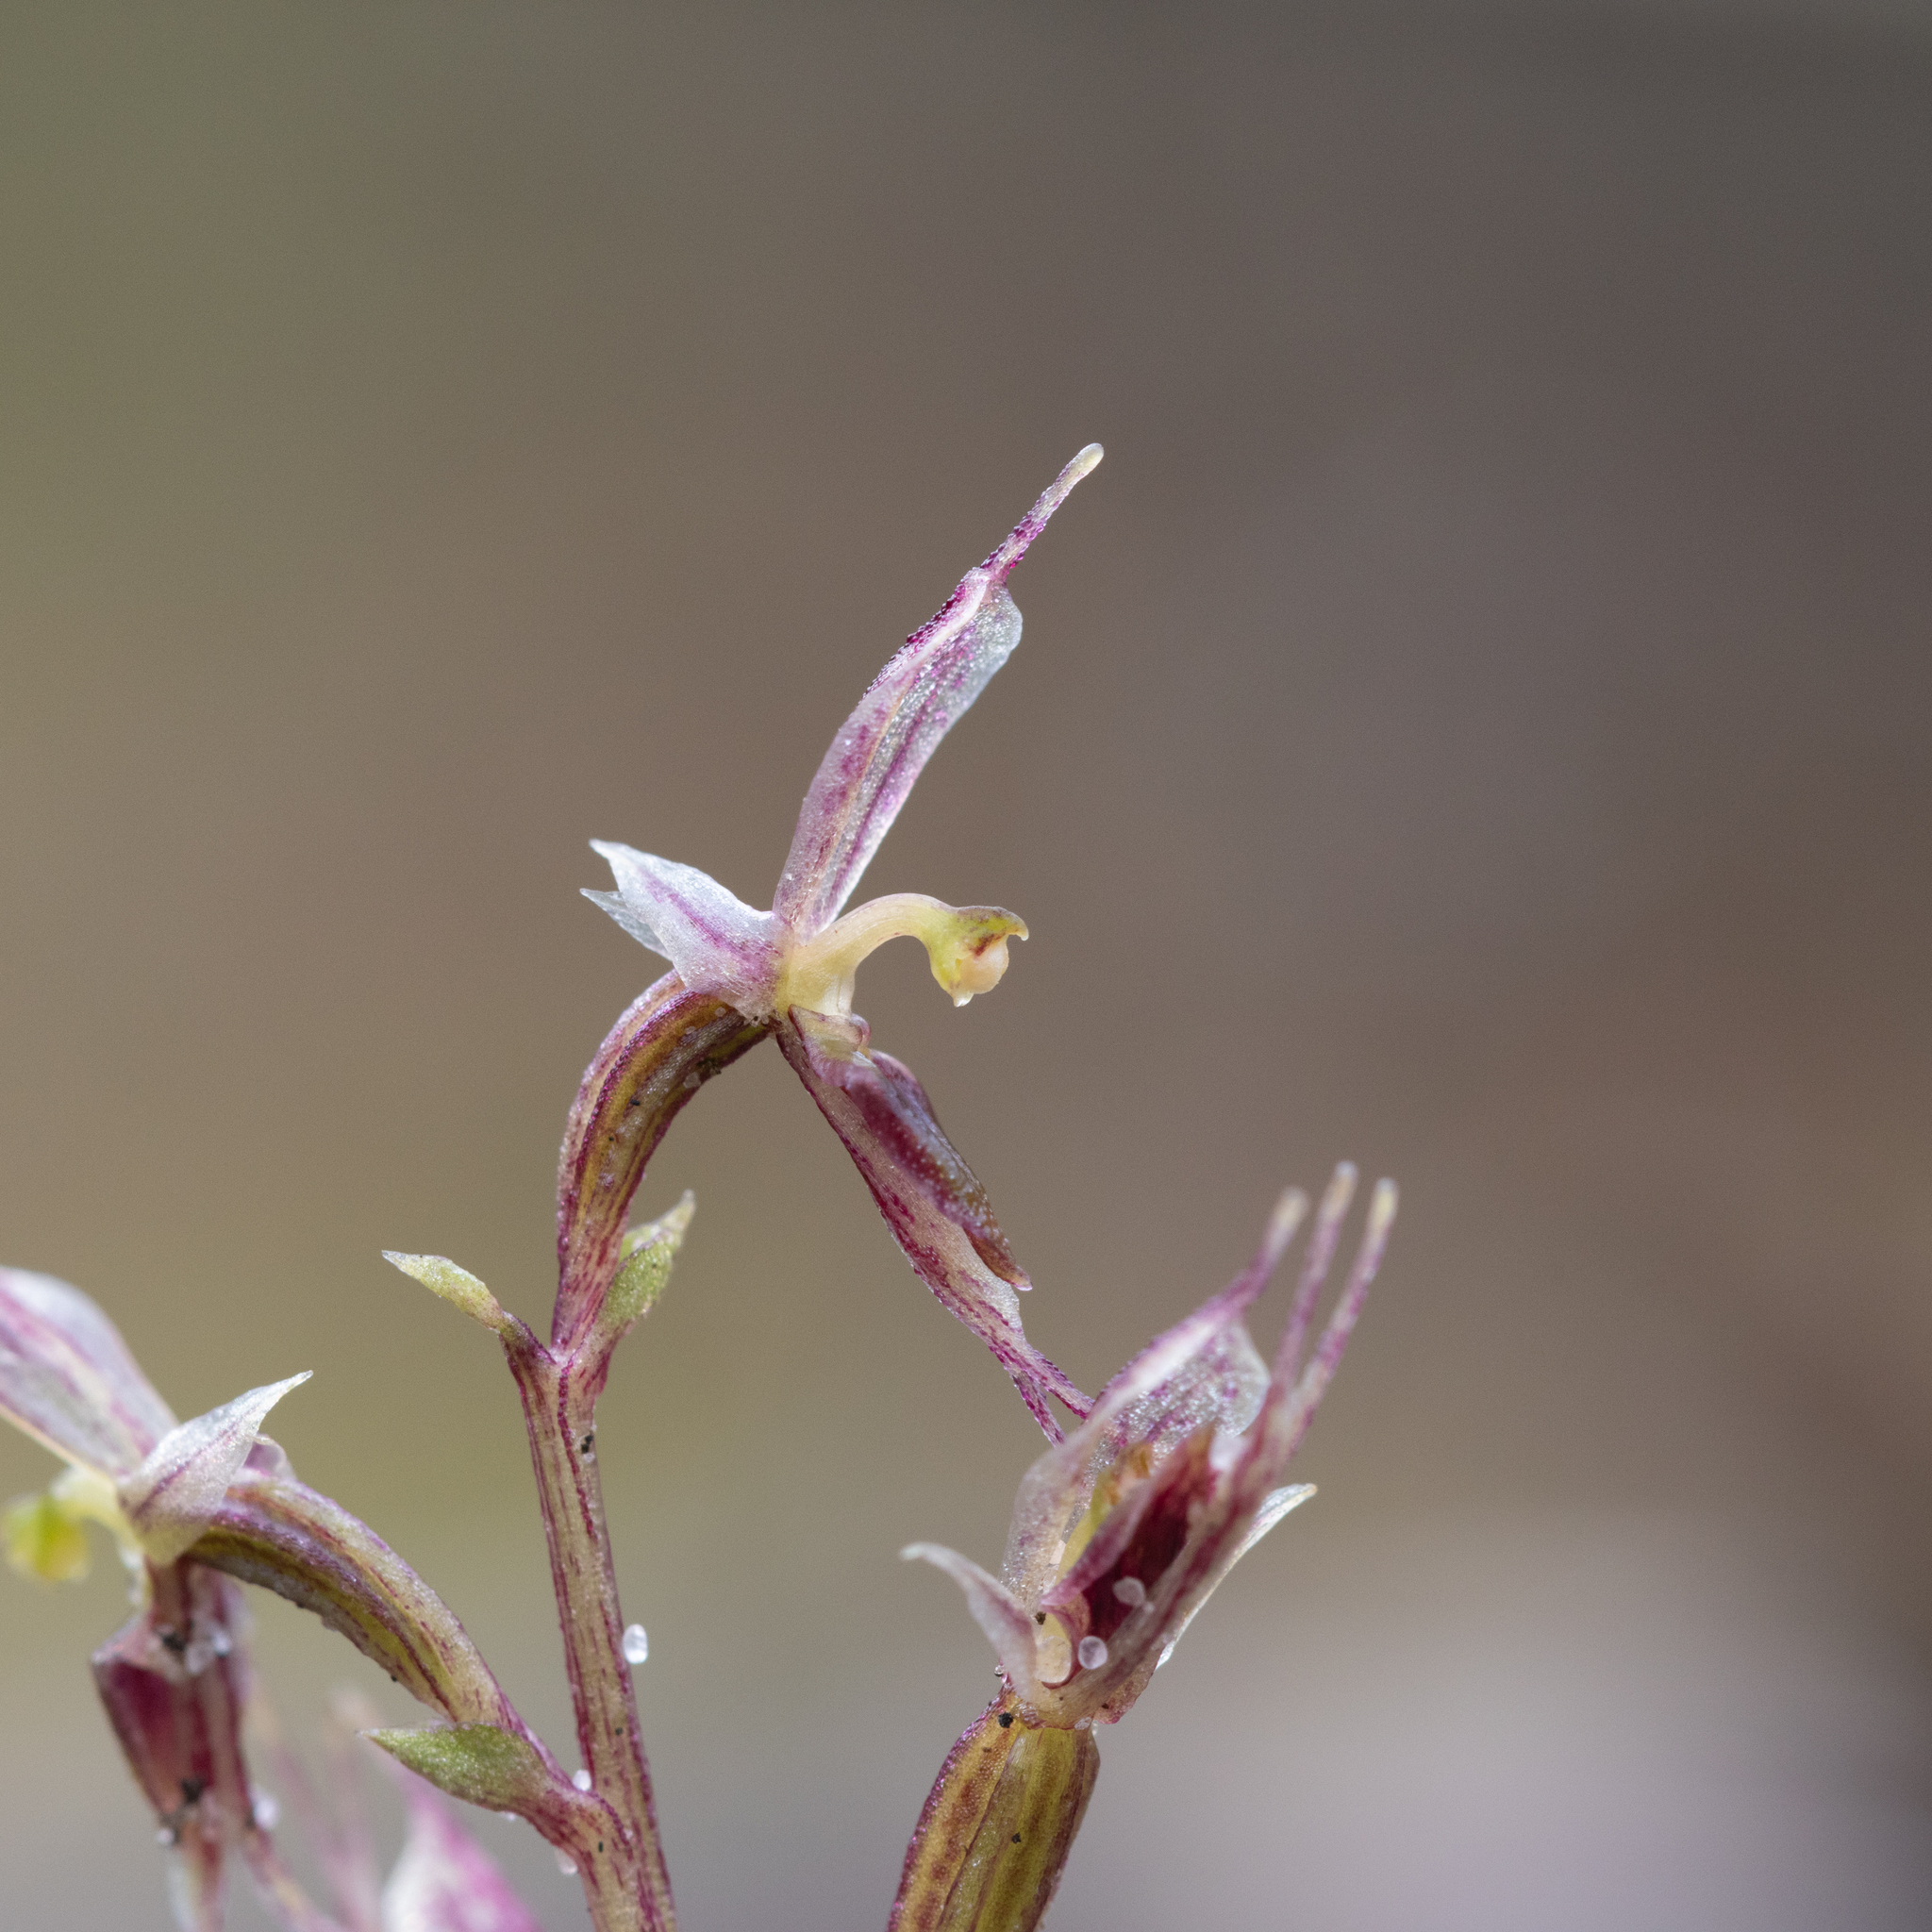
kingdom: Plantae
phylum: Tracheophyta
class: Liliopsida
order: Asparagales
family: Orchidaceae
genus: Acianthus
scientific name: Acianthus pusillus
